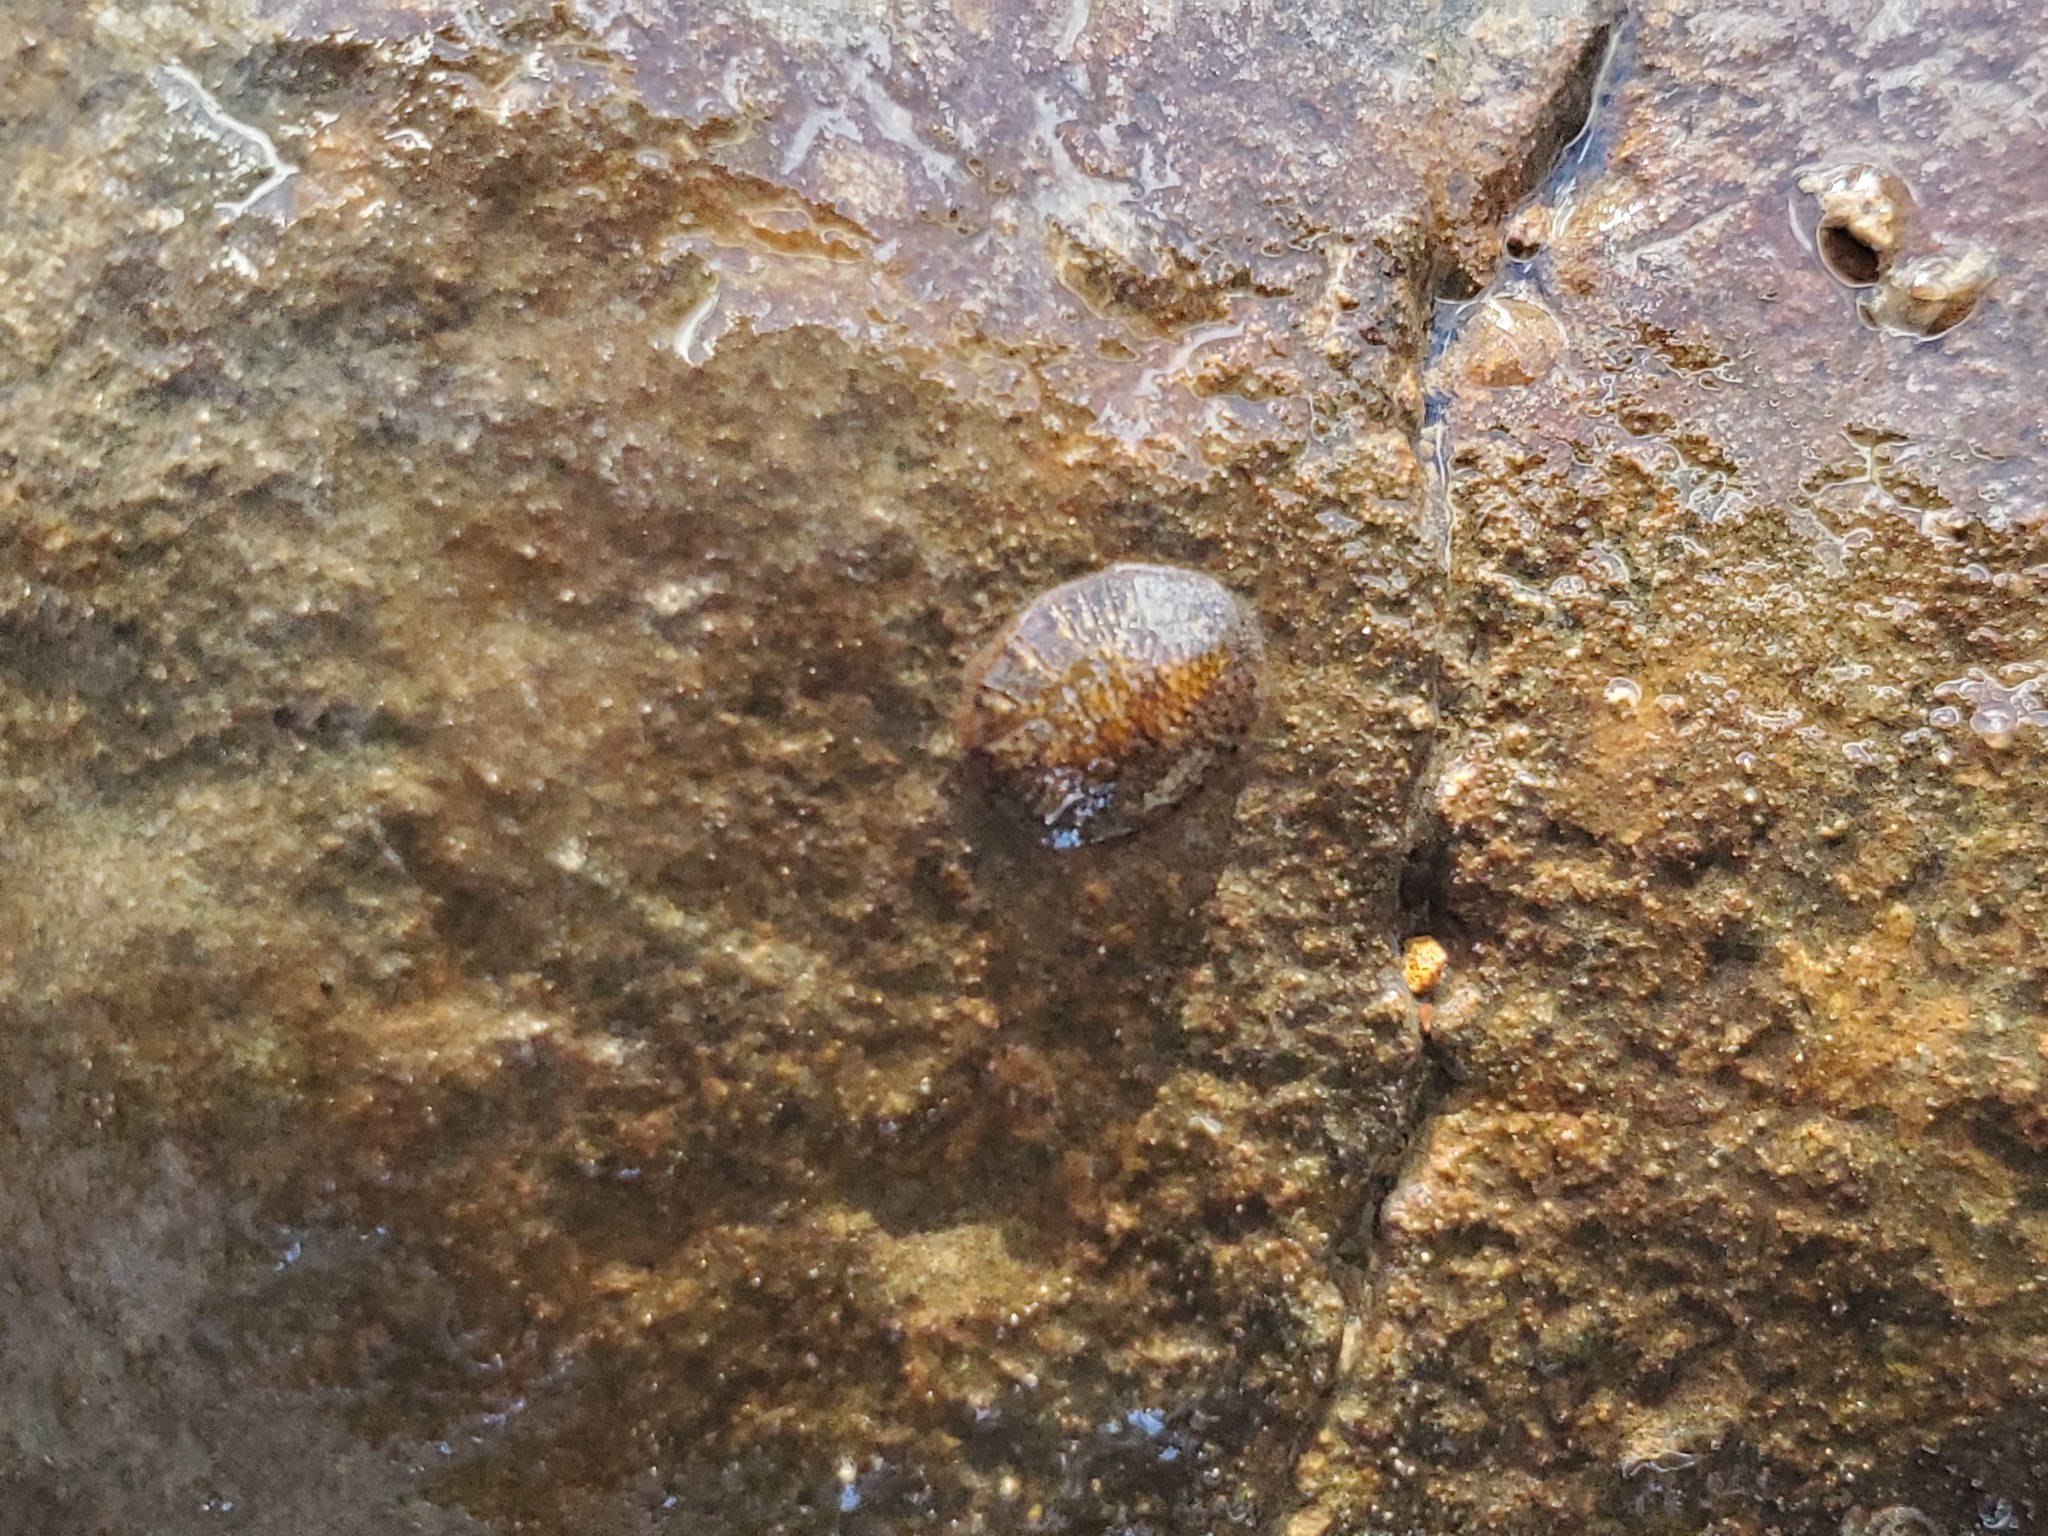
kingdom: Animalia
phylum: Arthropoda
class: Insecta
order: Coleoptera
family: Psephenidae
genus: Psephenus
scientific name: Psephenus herricki
